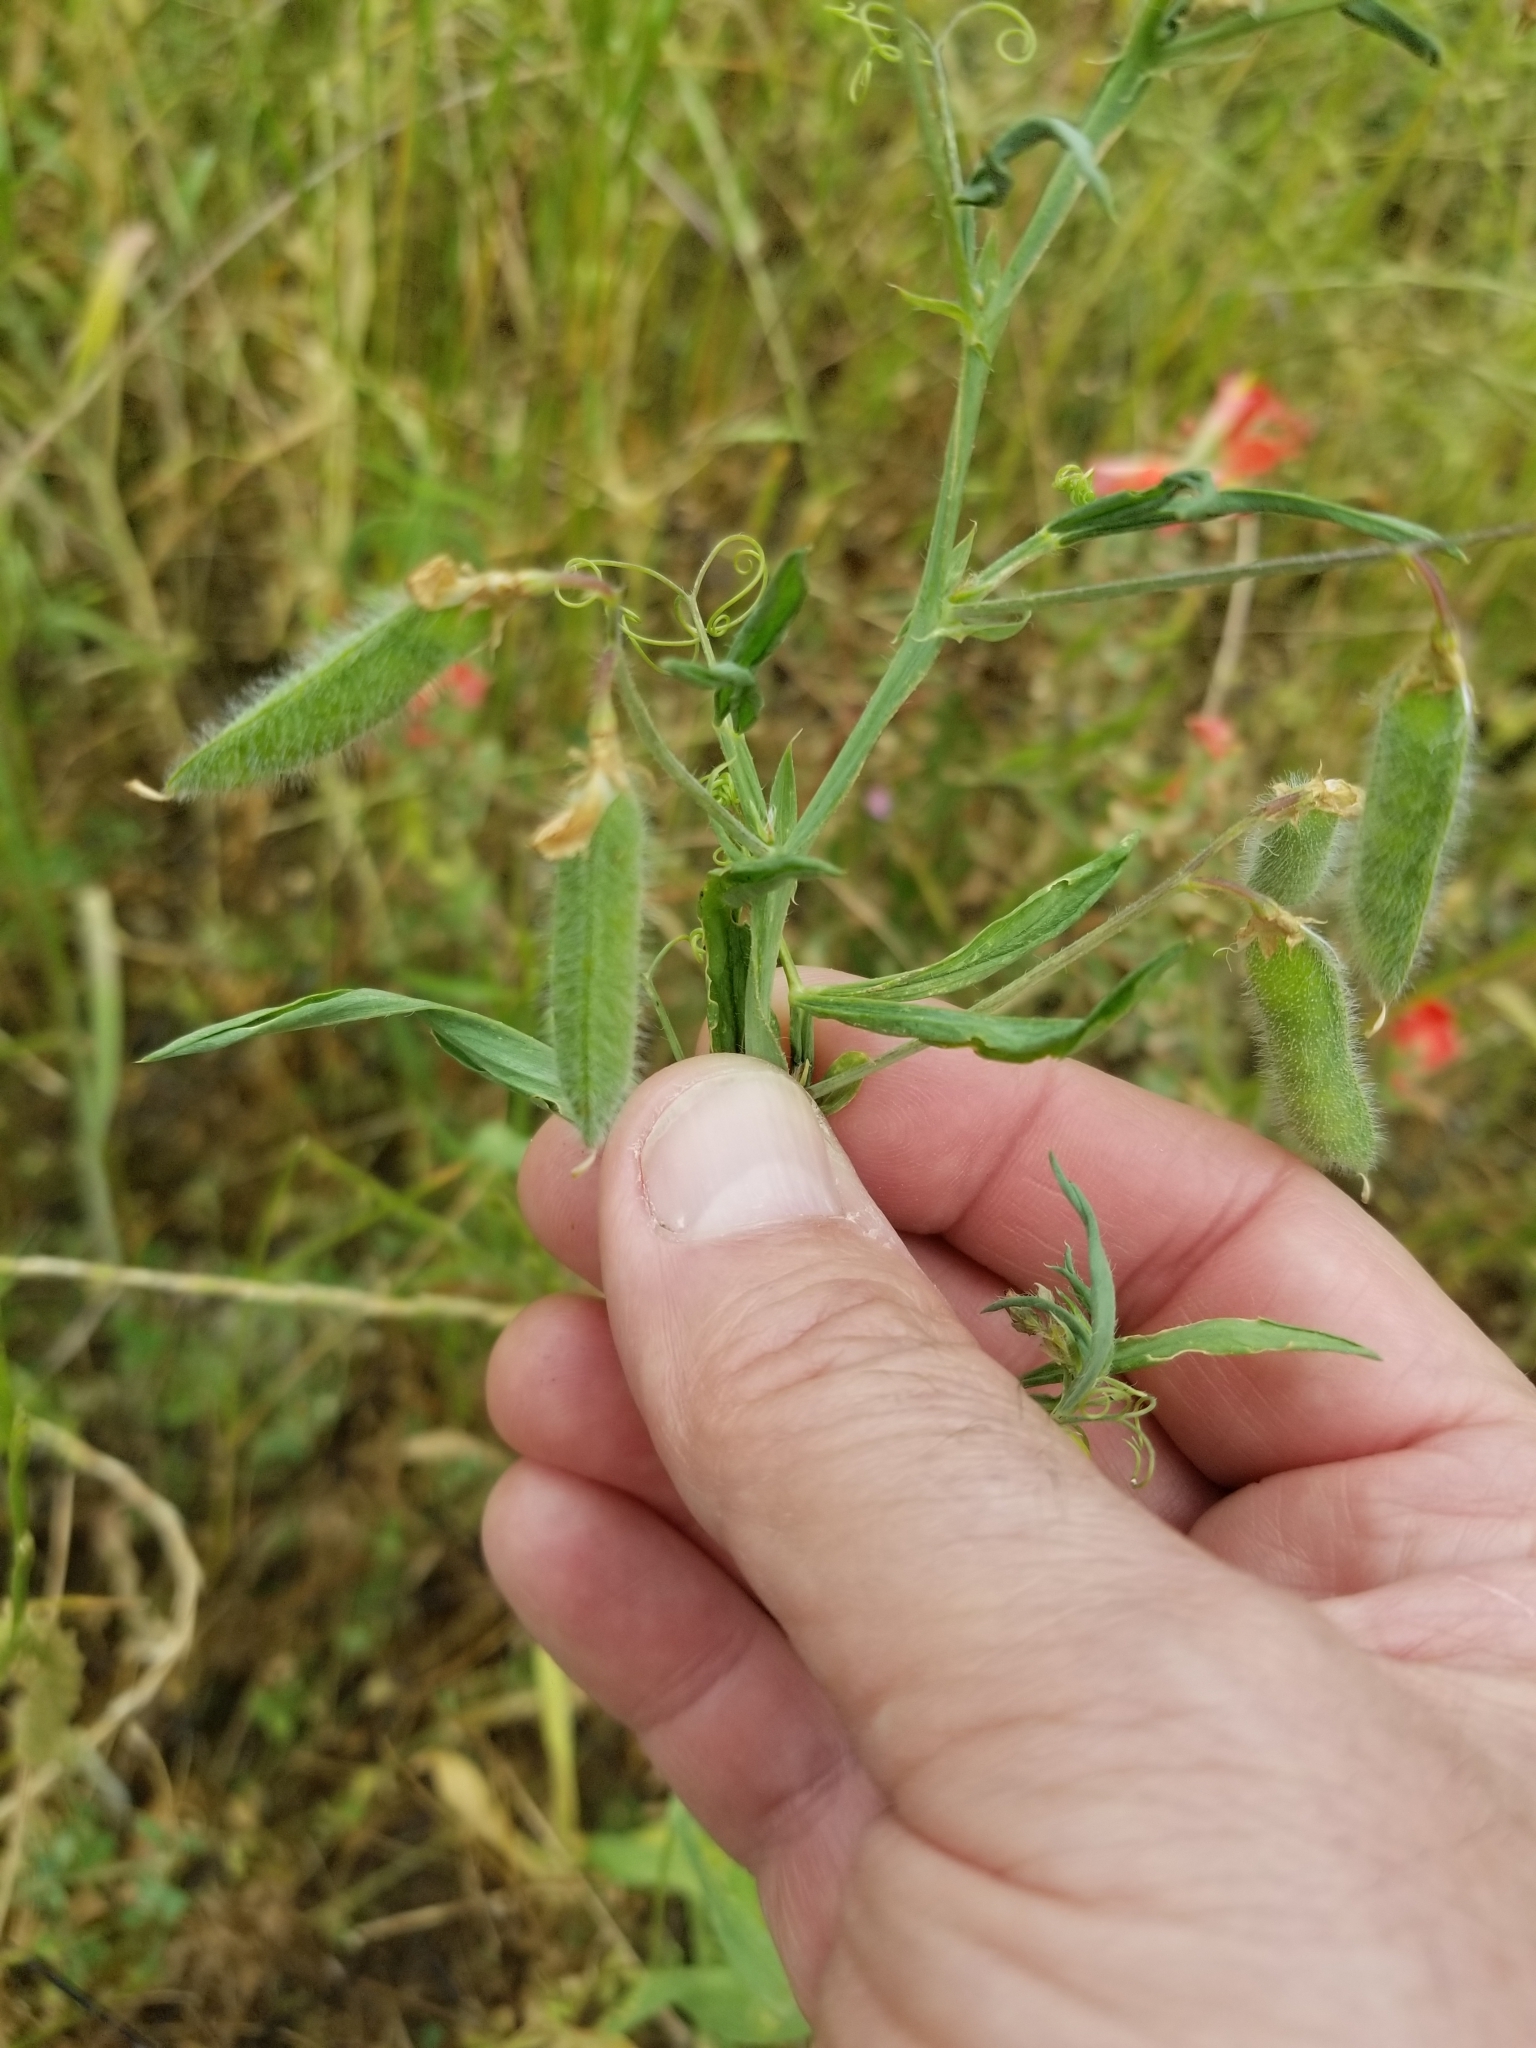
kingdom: Plantae
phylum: Tracheophyta
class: Magnoliopsida
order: Fabales
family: Fabaceae
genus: Lathyrus
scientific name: Lathyrus hirsutus
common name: Hairy vetchling
